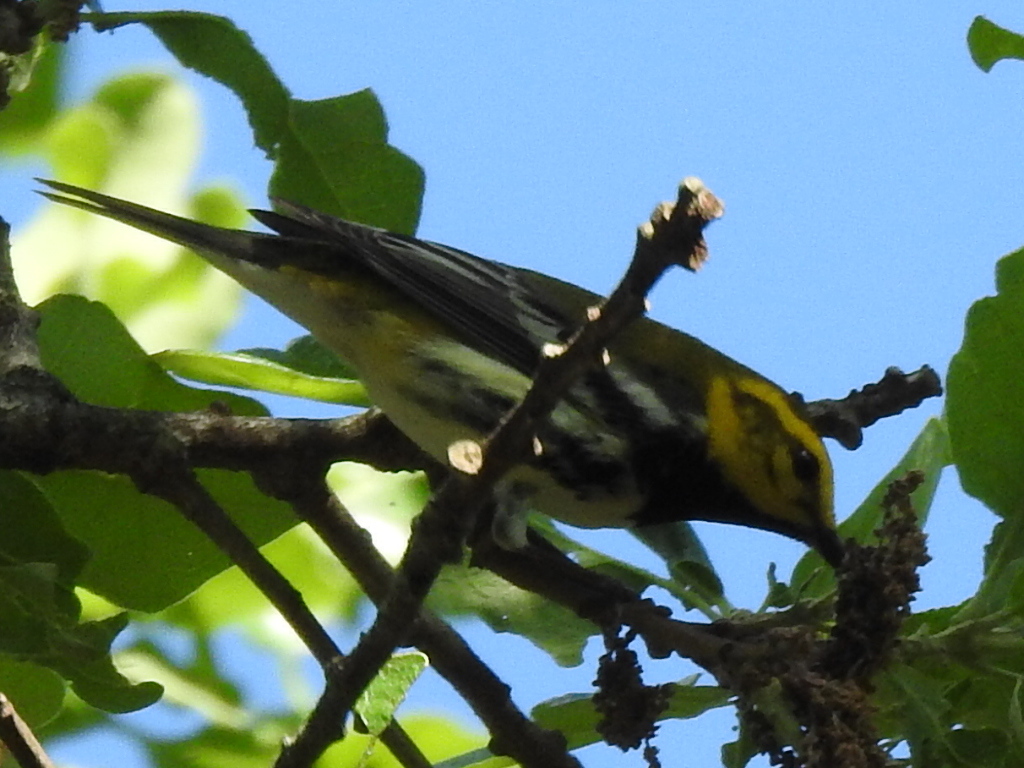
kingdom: Animalia
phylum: Chordata
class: Aves
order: Passeriformes
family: Parulidae
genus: Setophaga
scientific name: Setophaga virens
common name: Black-throated green warbler
